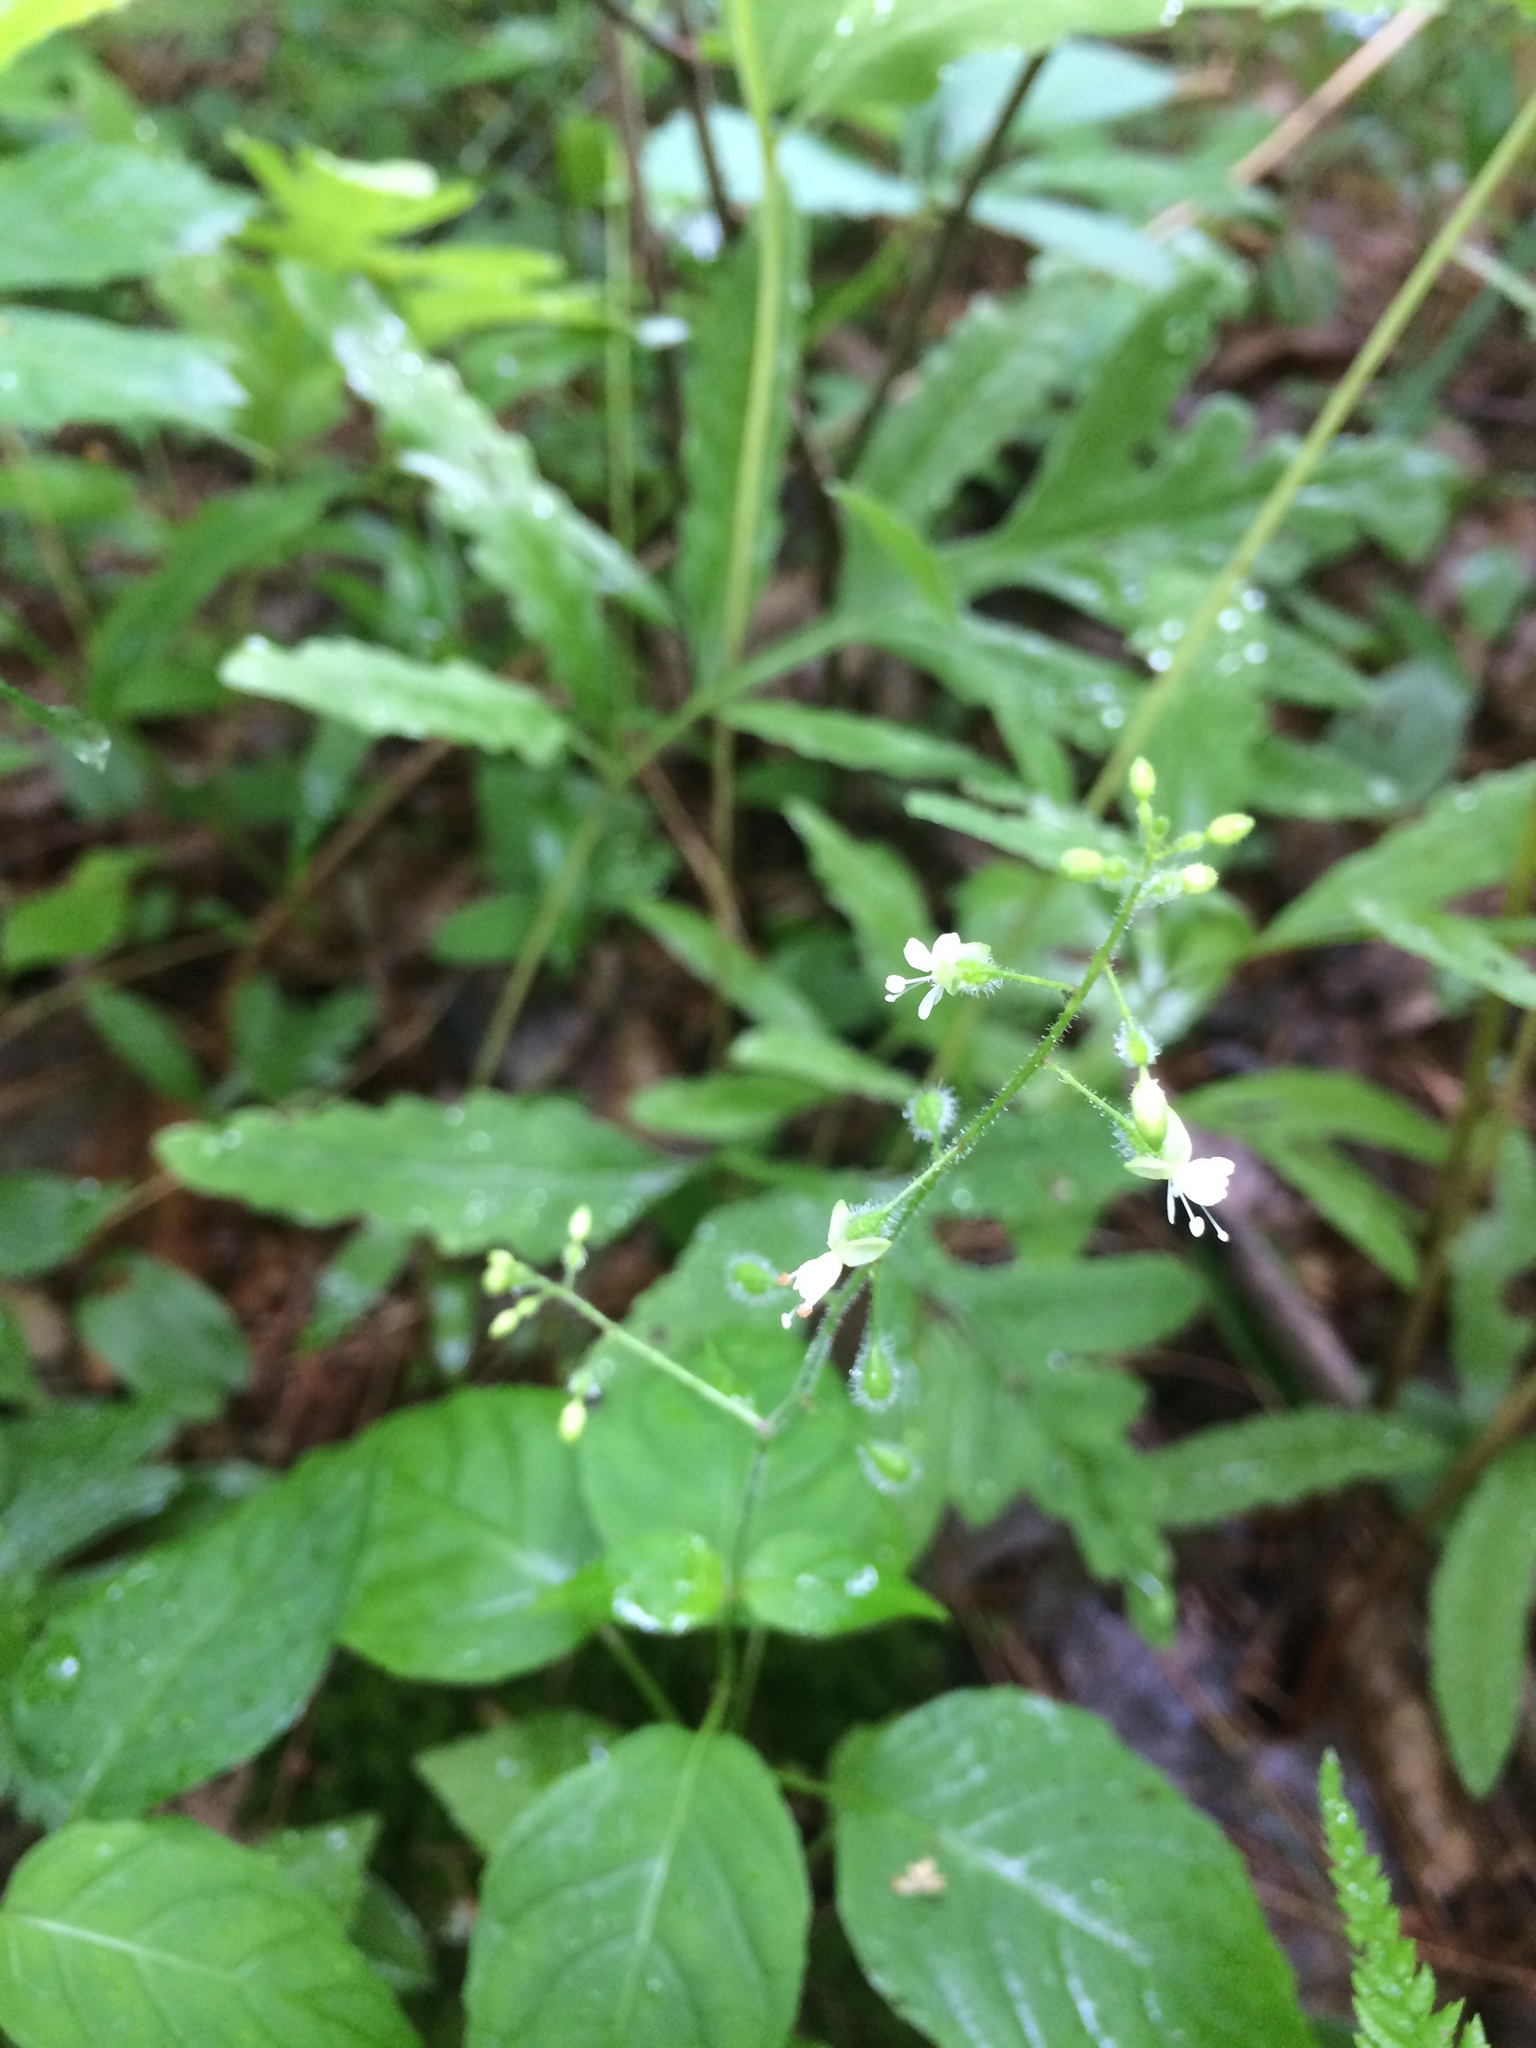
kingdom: Plantae
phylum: Tracheophyta
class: Magnoliopsida
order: Myrtales
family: Onagraceae
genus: Circaea
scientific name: Circaea canadensis
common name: Broad-leaved enchanter's nightshade
